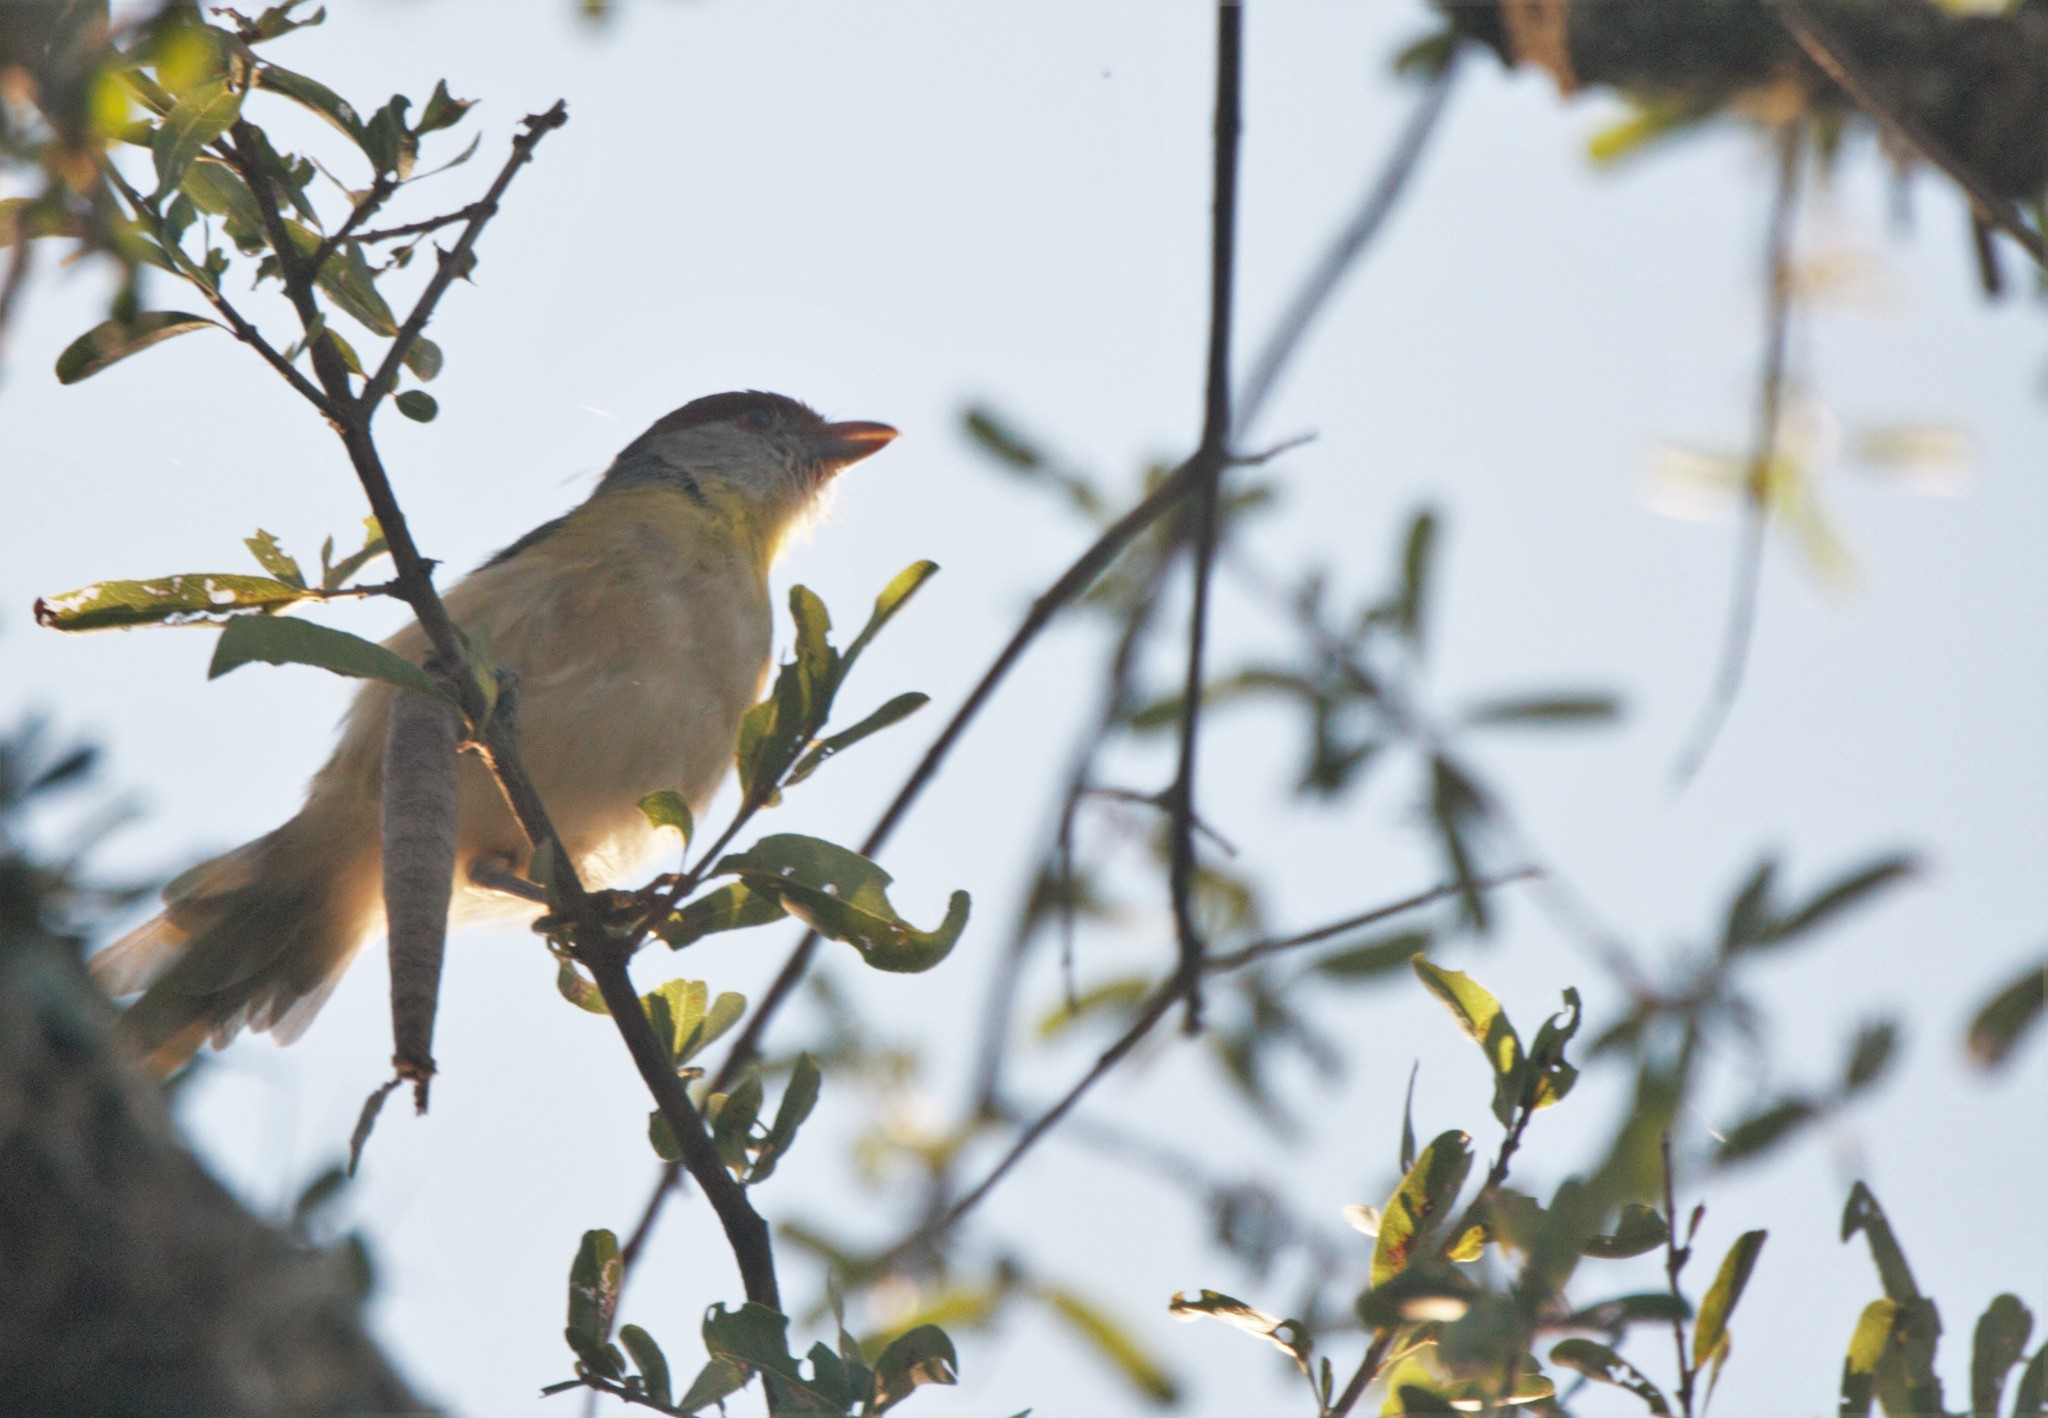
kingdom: Animalia
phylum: Chordata
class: Aves
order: Passeriformes
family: Vireonidae
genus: Cyclarhis
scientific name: Cyclarhis gujanensis
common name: Rufous-browed peppershrike
